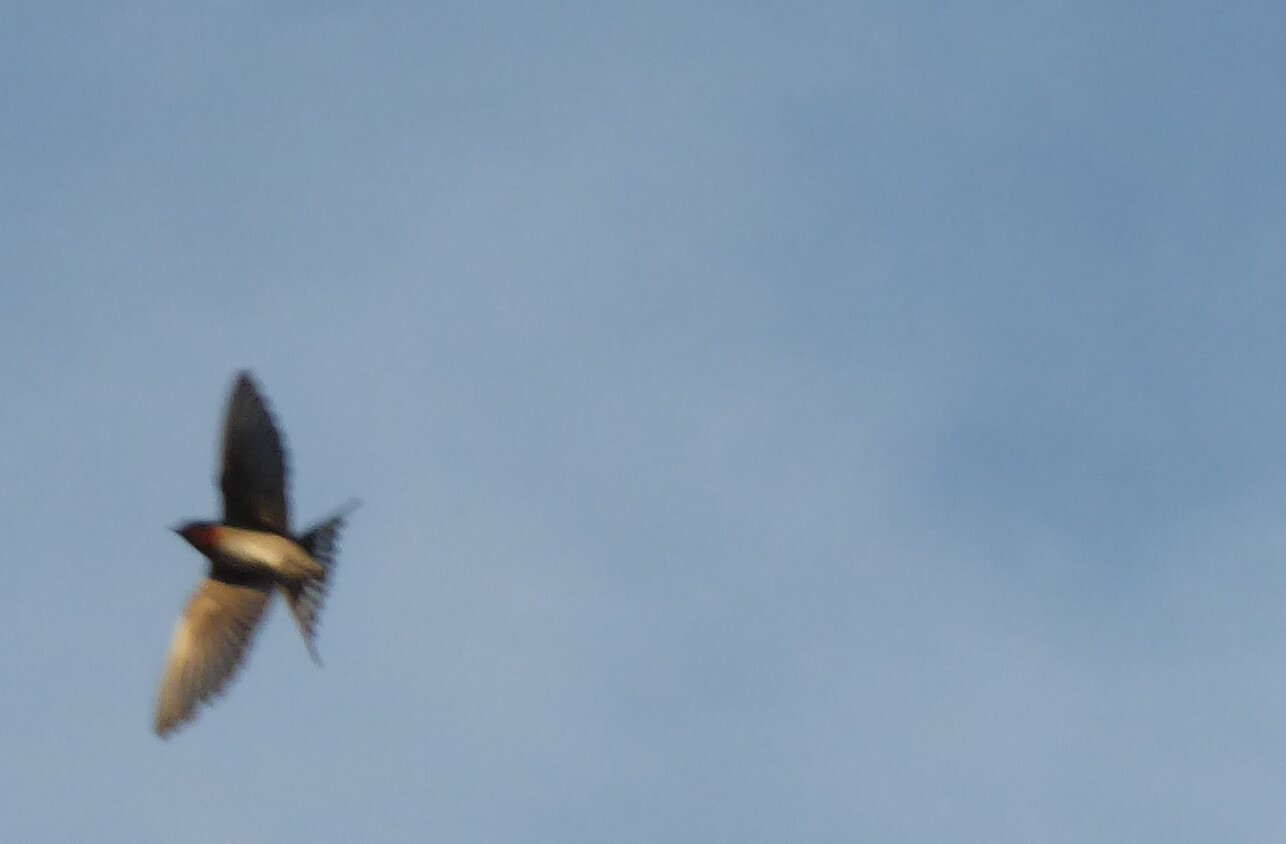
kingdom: Animalia
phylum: Chordata
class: Aves
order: Passeriformes
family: Hirundinidae
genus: Hirundo
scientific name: Hirundo neoxena
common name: Welcome swallow
